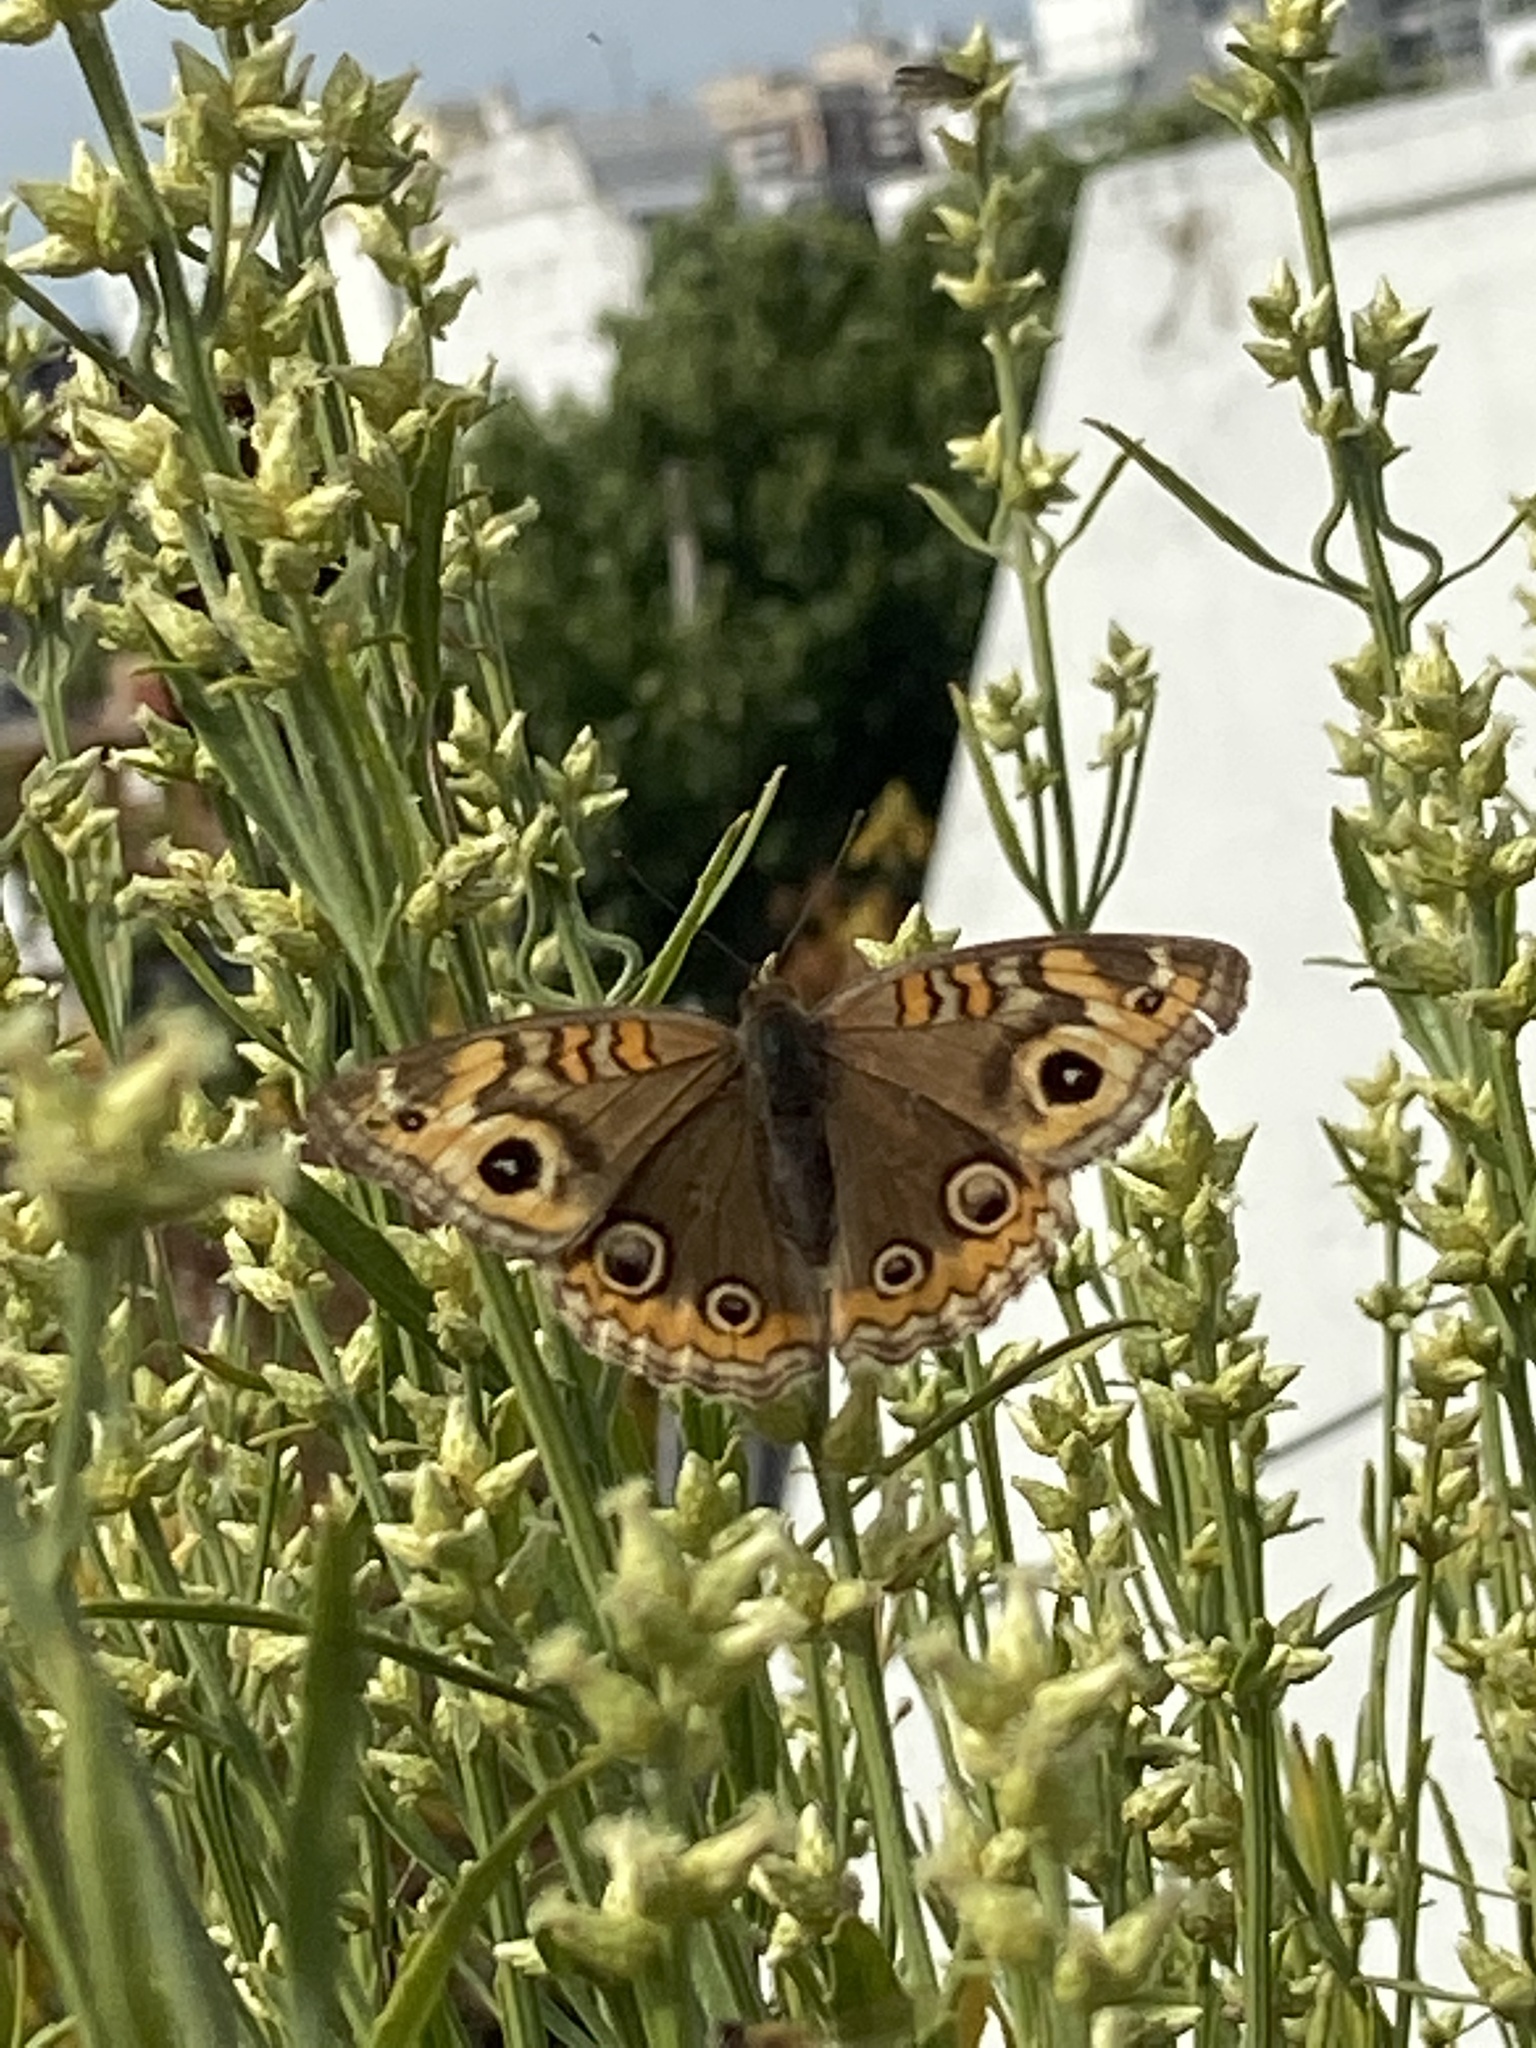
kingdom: Animalia
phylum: Arthropoda
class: Insecta
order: Lepidoptera
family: Nymphalidae
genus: Junonia
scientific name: Junonia lavinia
